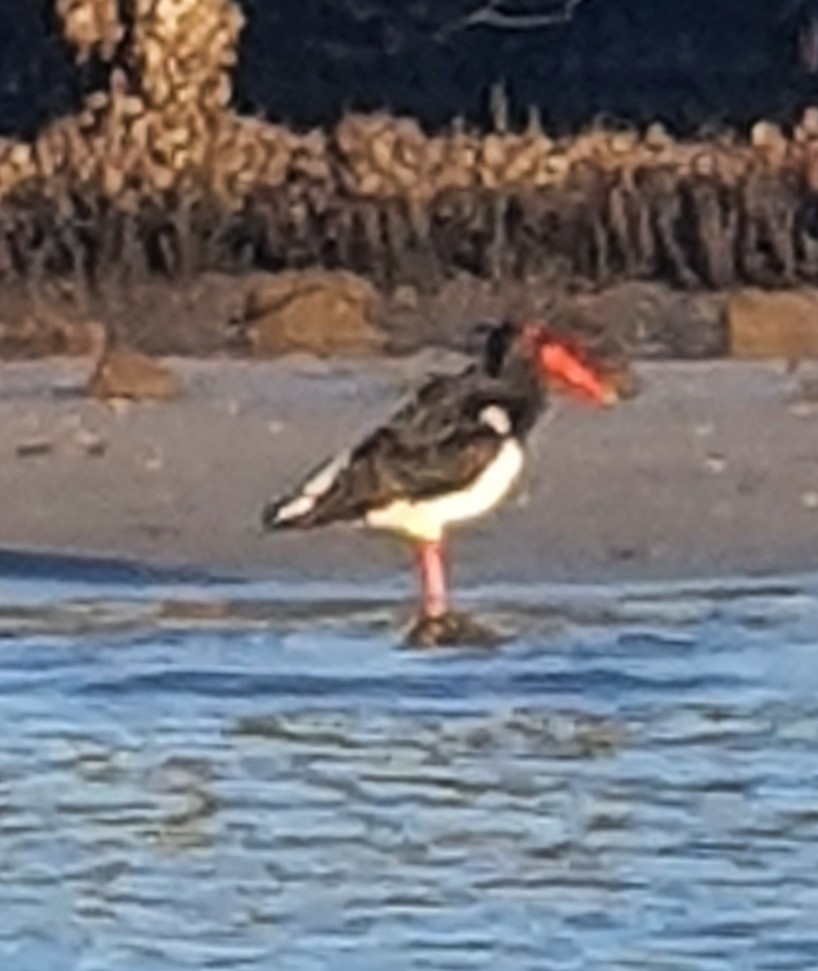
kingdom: Animalia
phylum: Chordata
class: Aves
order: Charadriiformes
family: Haematopodidae
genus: Haematopus
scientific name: Haematopus longirostris
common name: Pied oystercatcher
